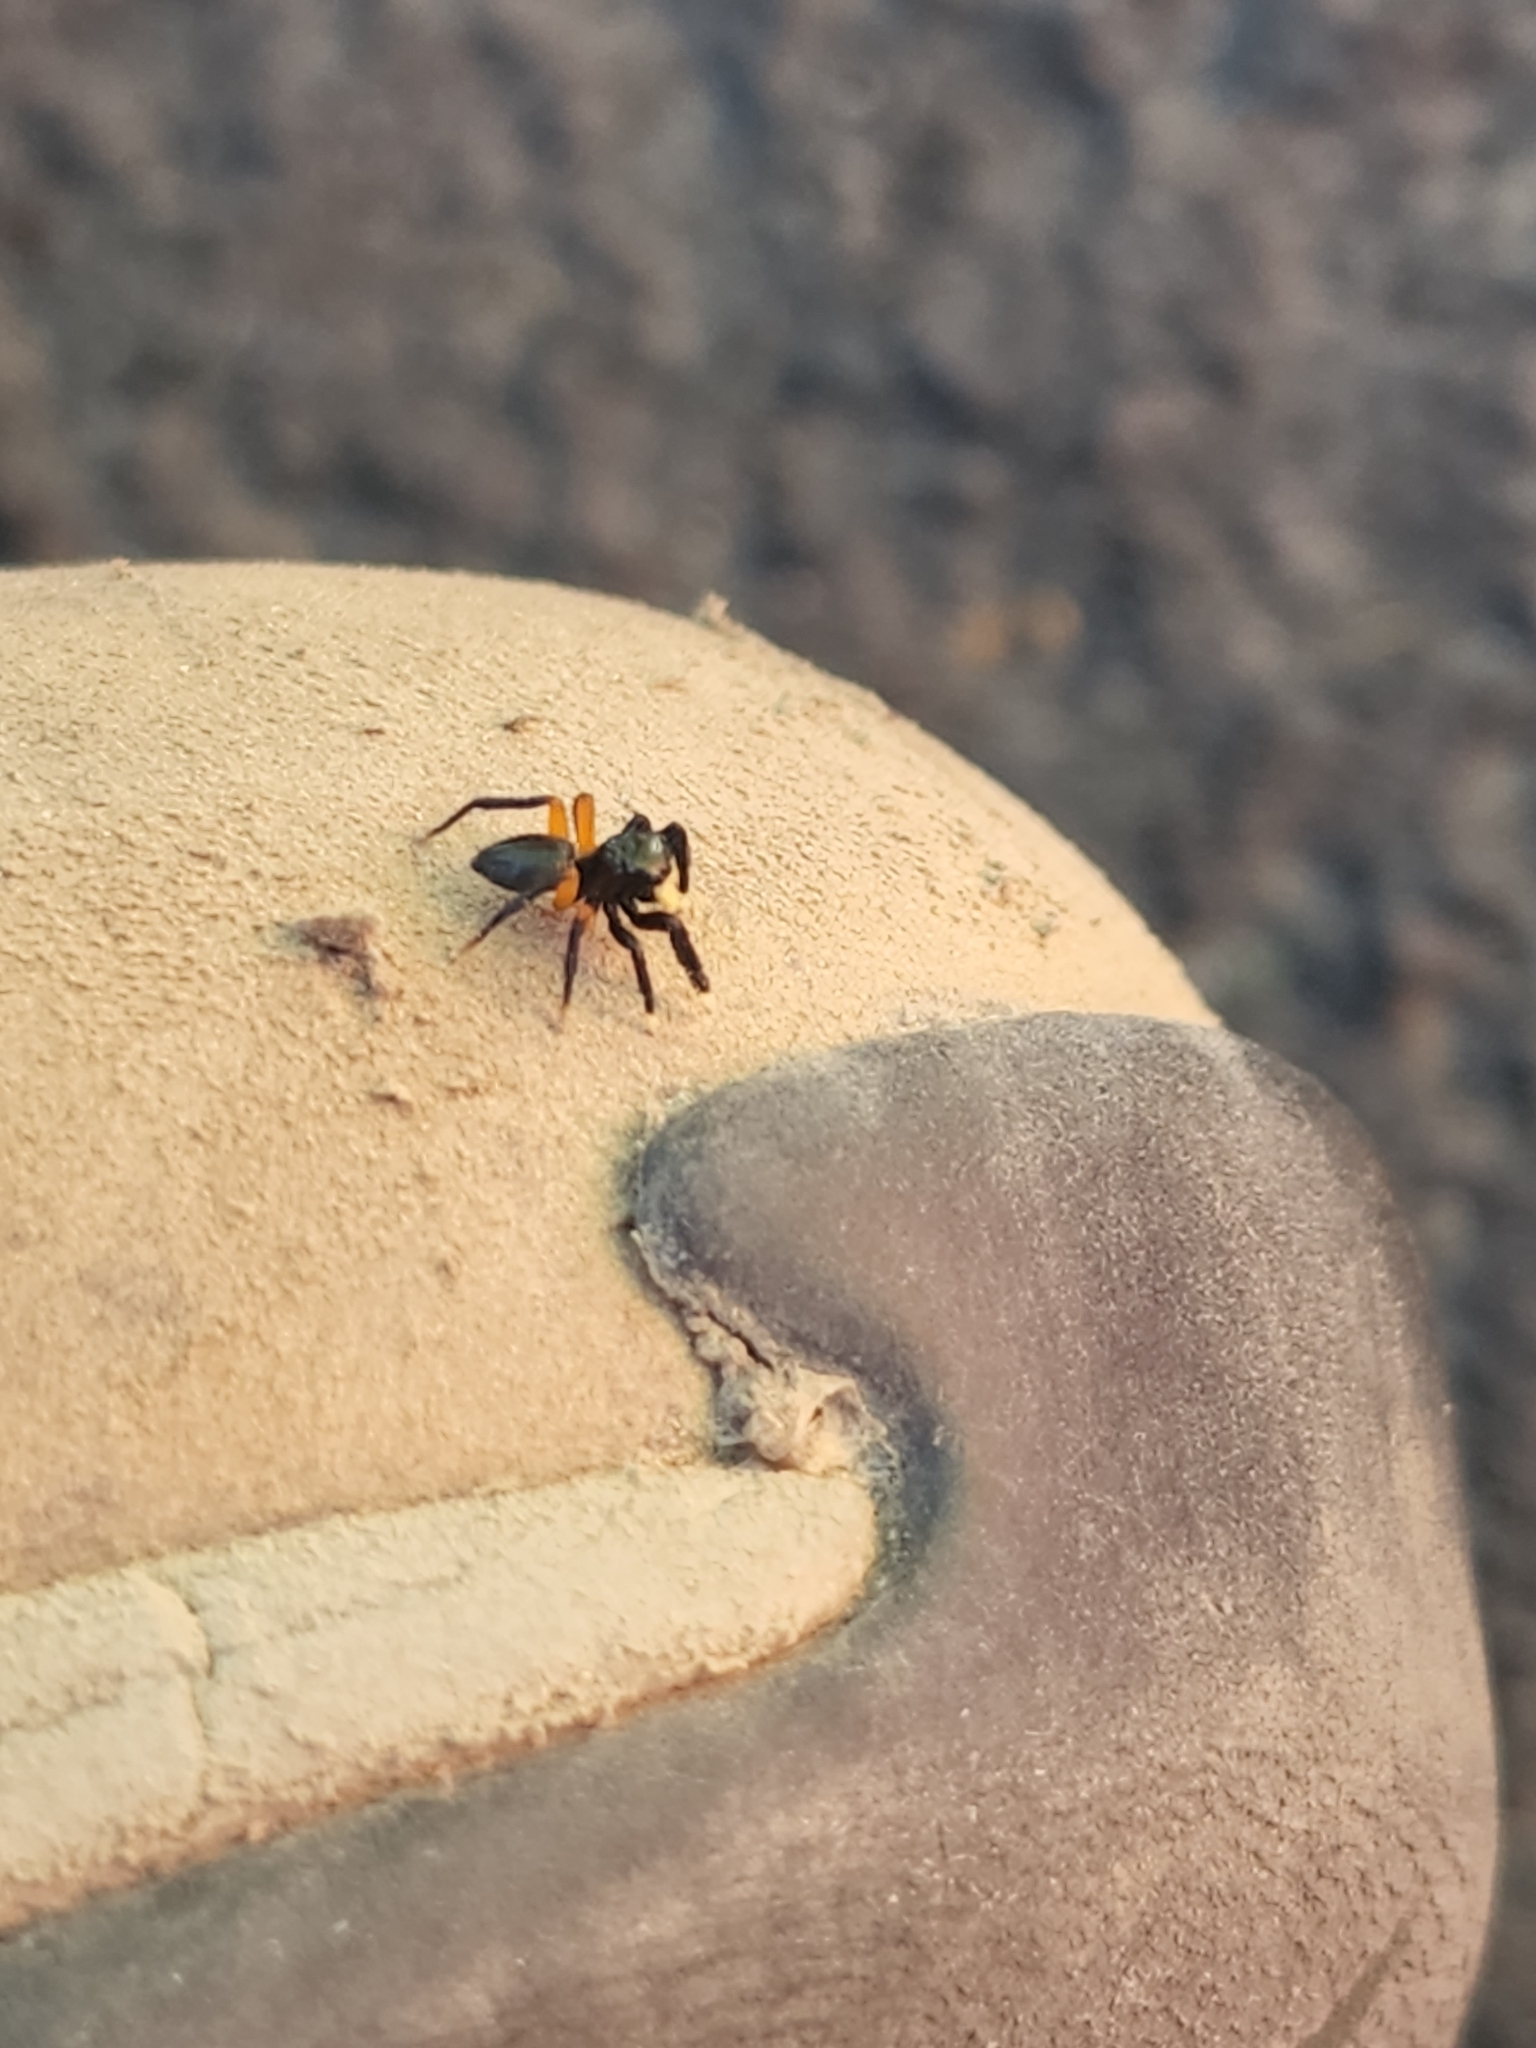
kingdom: Animalia
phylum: Arthropoda
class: Arachnida
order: Araneae
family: Salticidae
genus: Euophrys
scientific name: Euophrys monadnock
